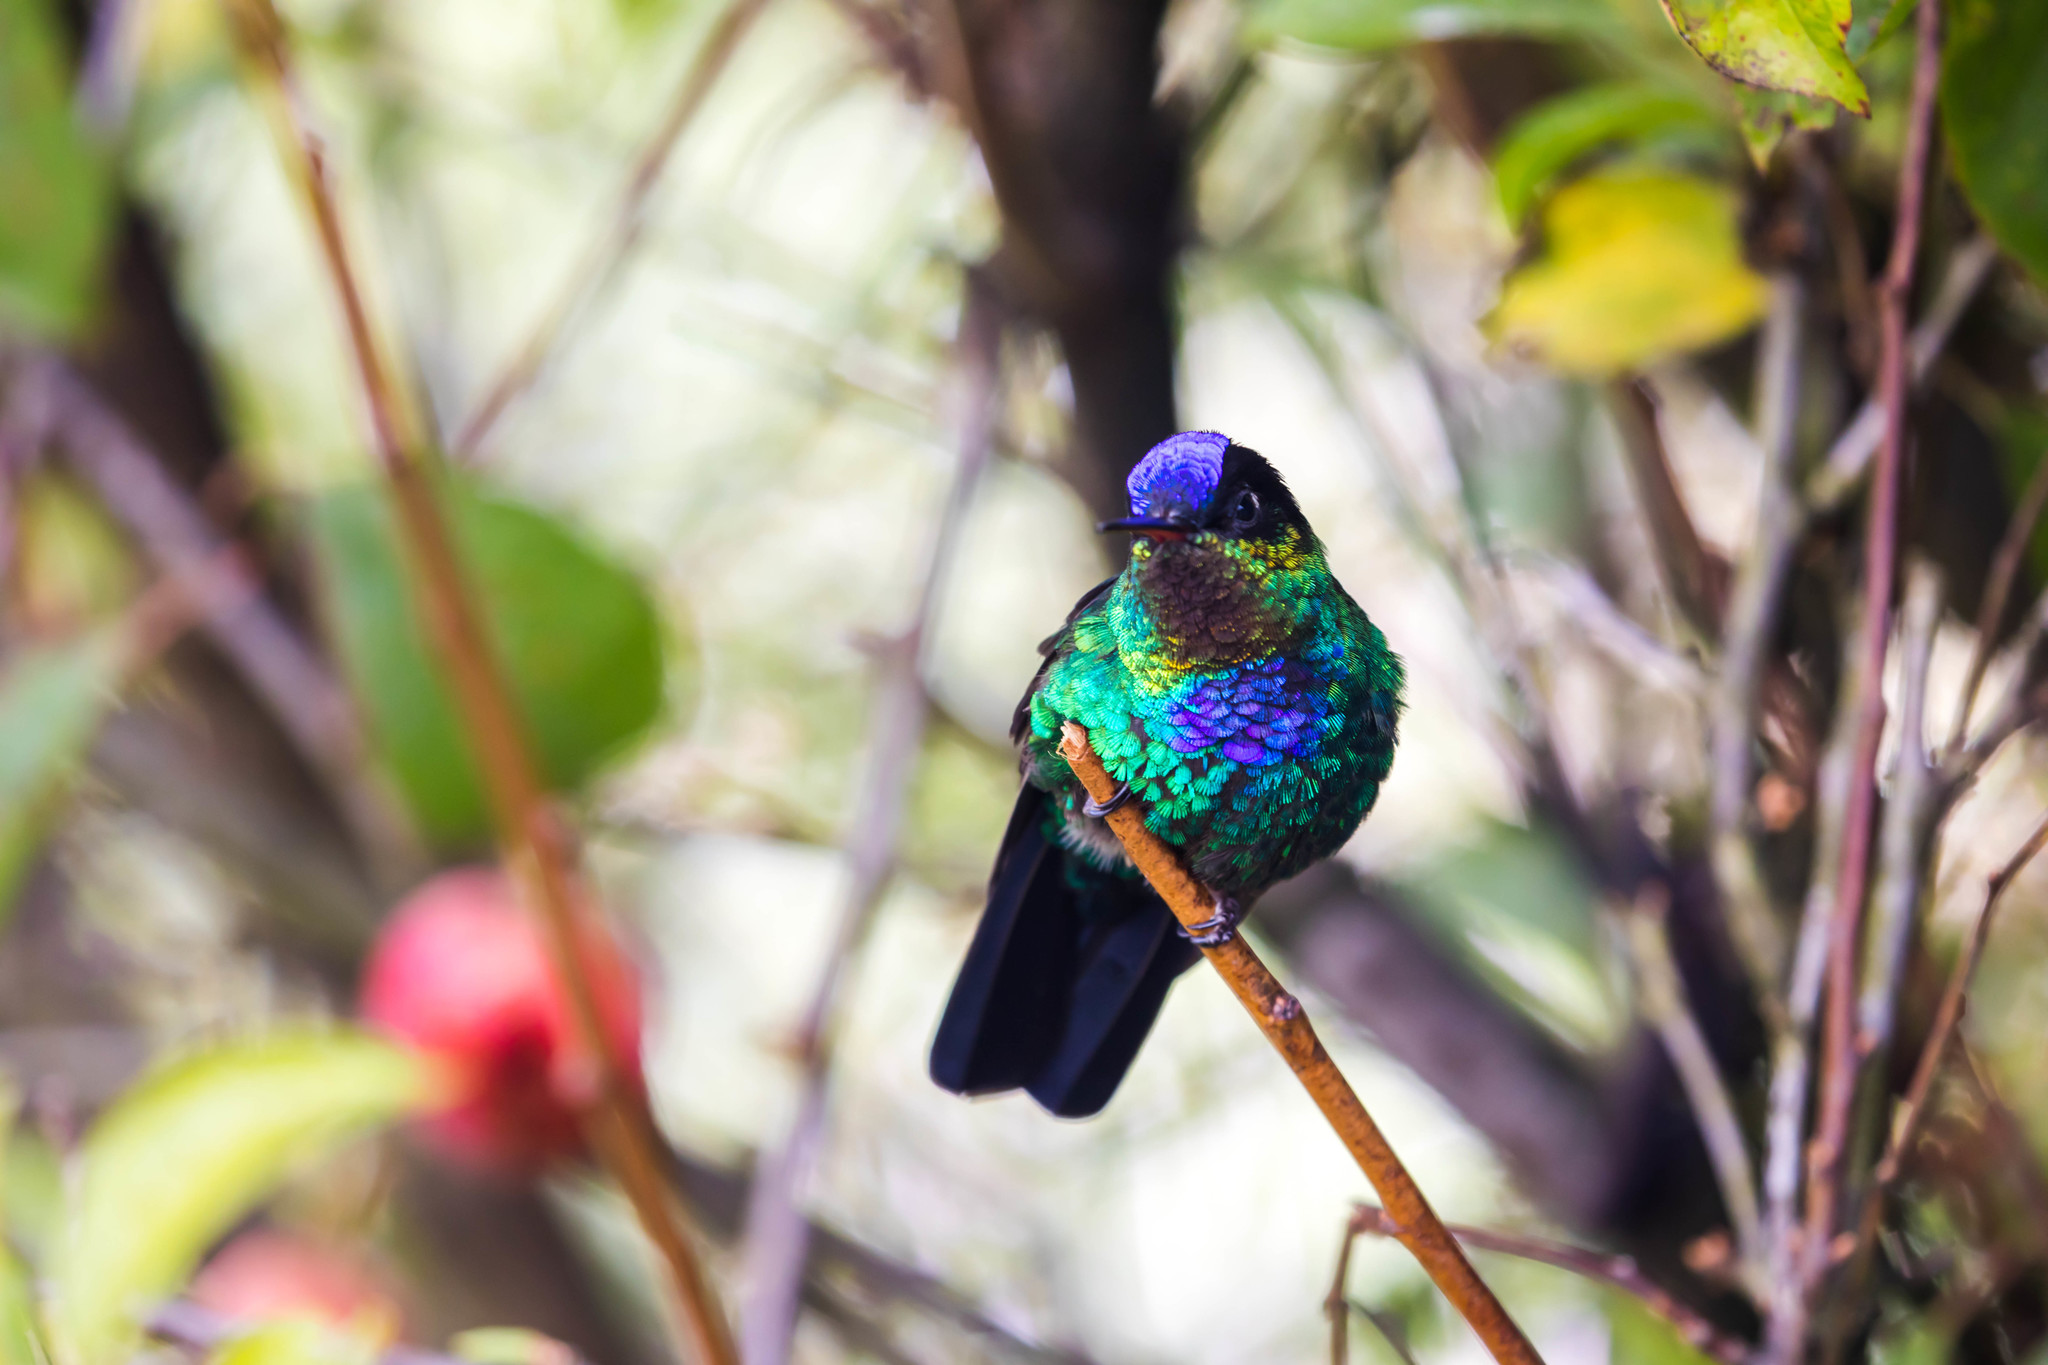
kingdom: Animalia
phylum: Chordata
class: Aves
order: Apodiformes
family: Trochilidae
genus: Panterpe
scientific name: Panterpe insignis
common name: Fiery-throated hummingbird
